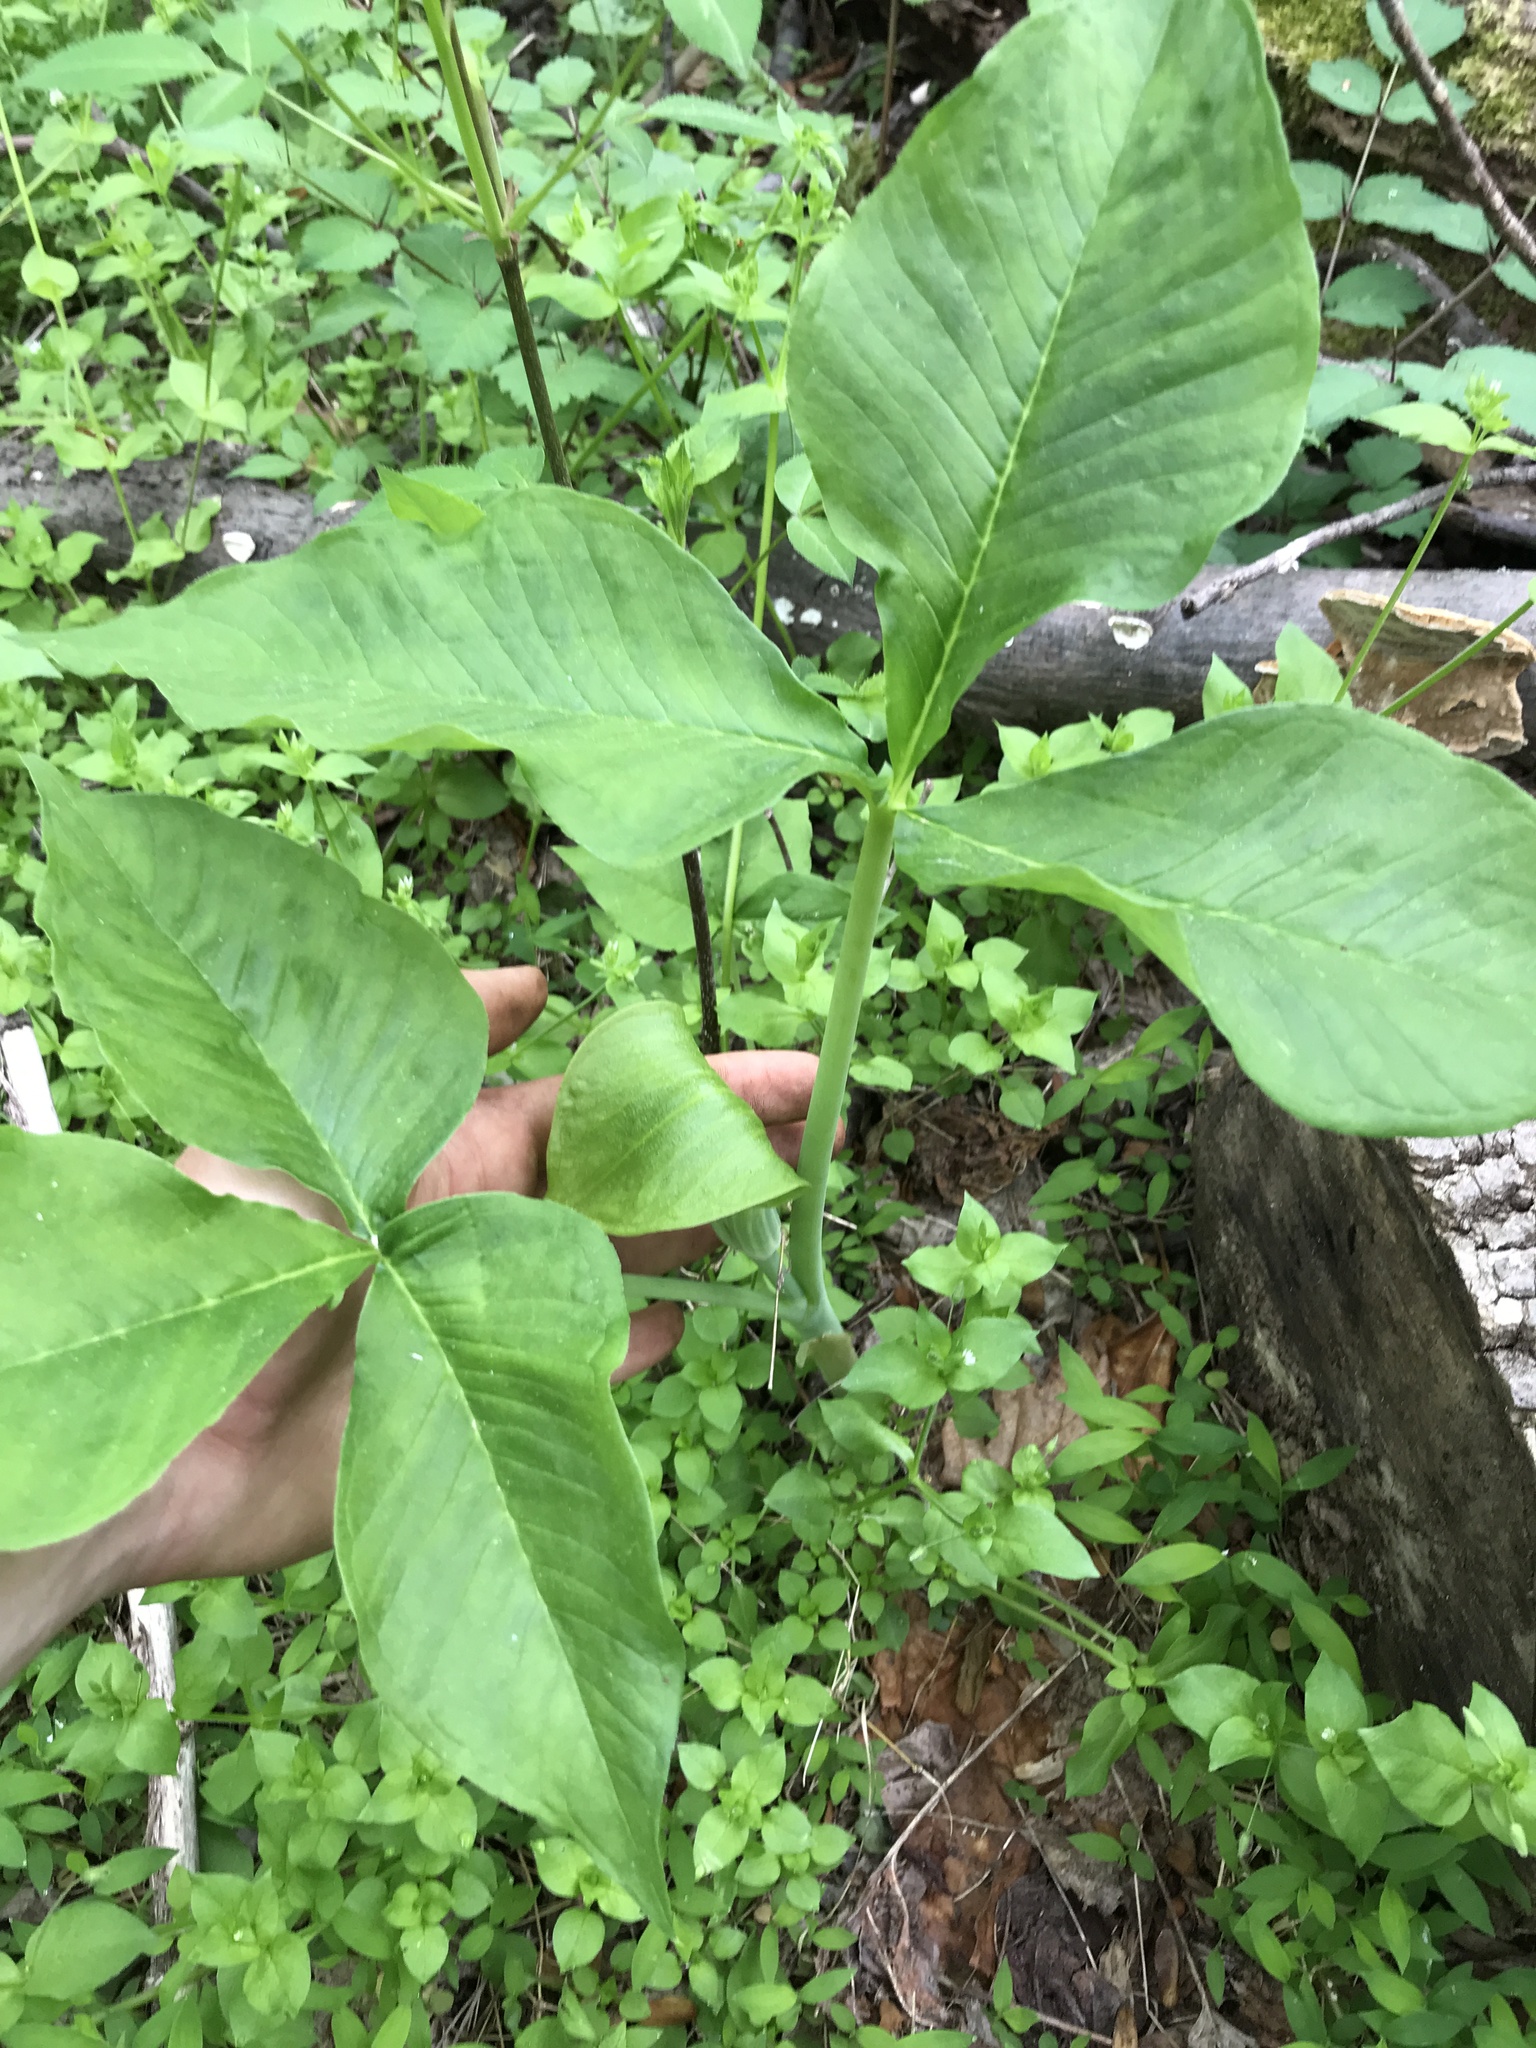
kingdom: Plantae
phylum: Tracheophyta
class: Liliopsida
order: Alismatales
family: Araceae
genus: Arisaema
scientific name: Arisaema triphyllum
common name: Jack-in-the-pulpit
